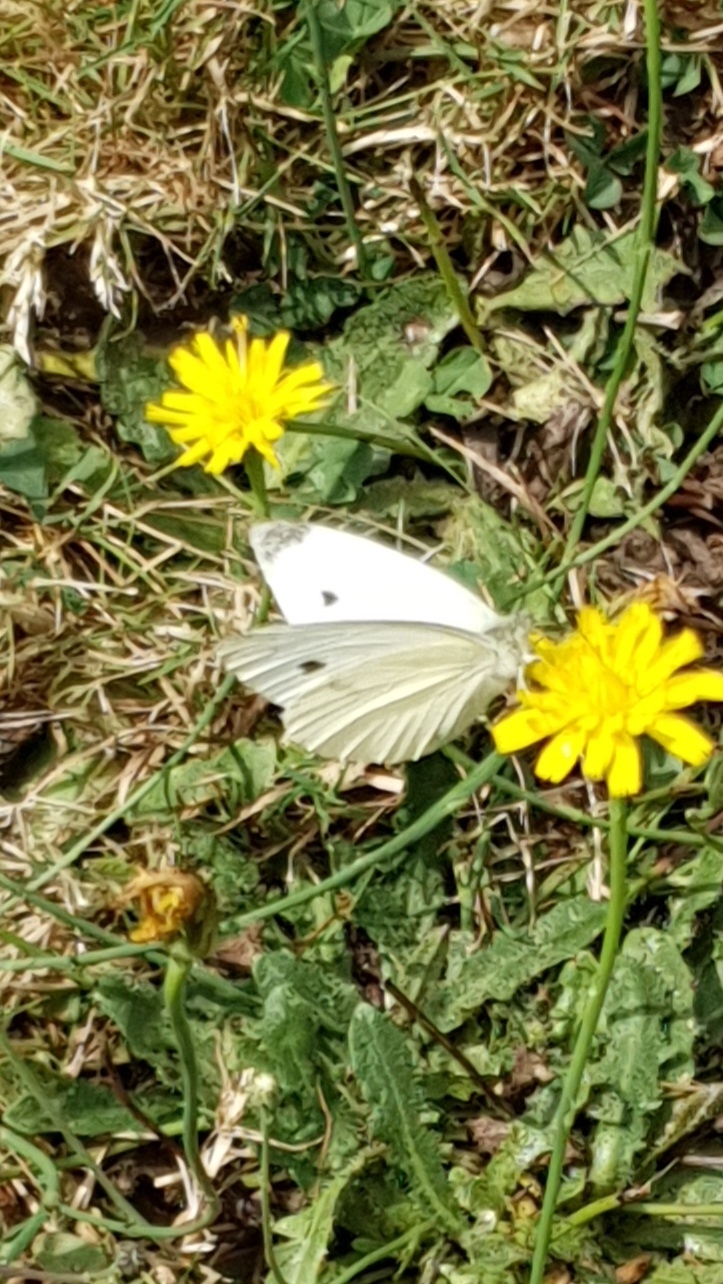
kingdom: Animalia
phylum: Arthropoda
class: Insecta
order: Lepidoptera
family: Pieridae
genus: Pieris
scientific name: Pieris rapae
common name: Small white
